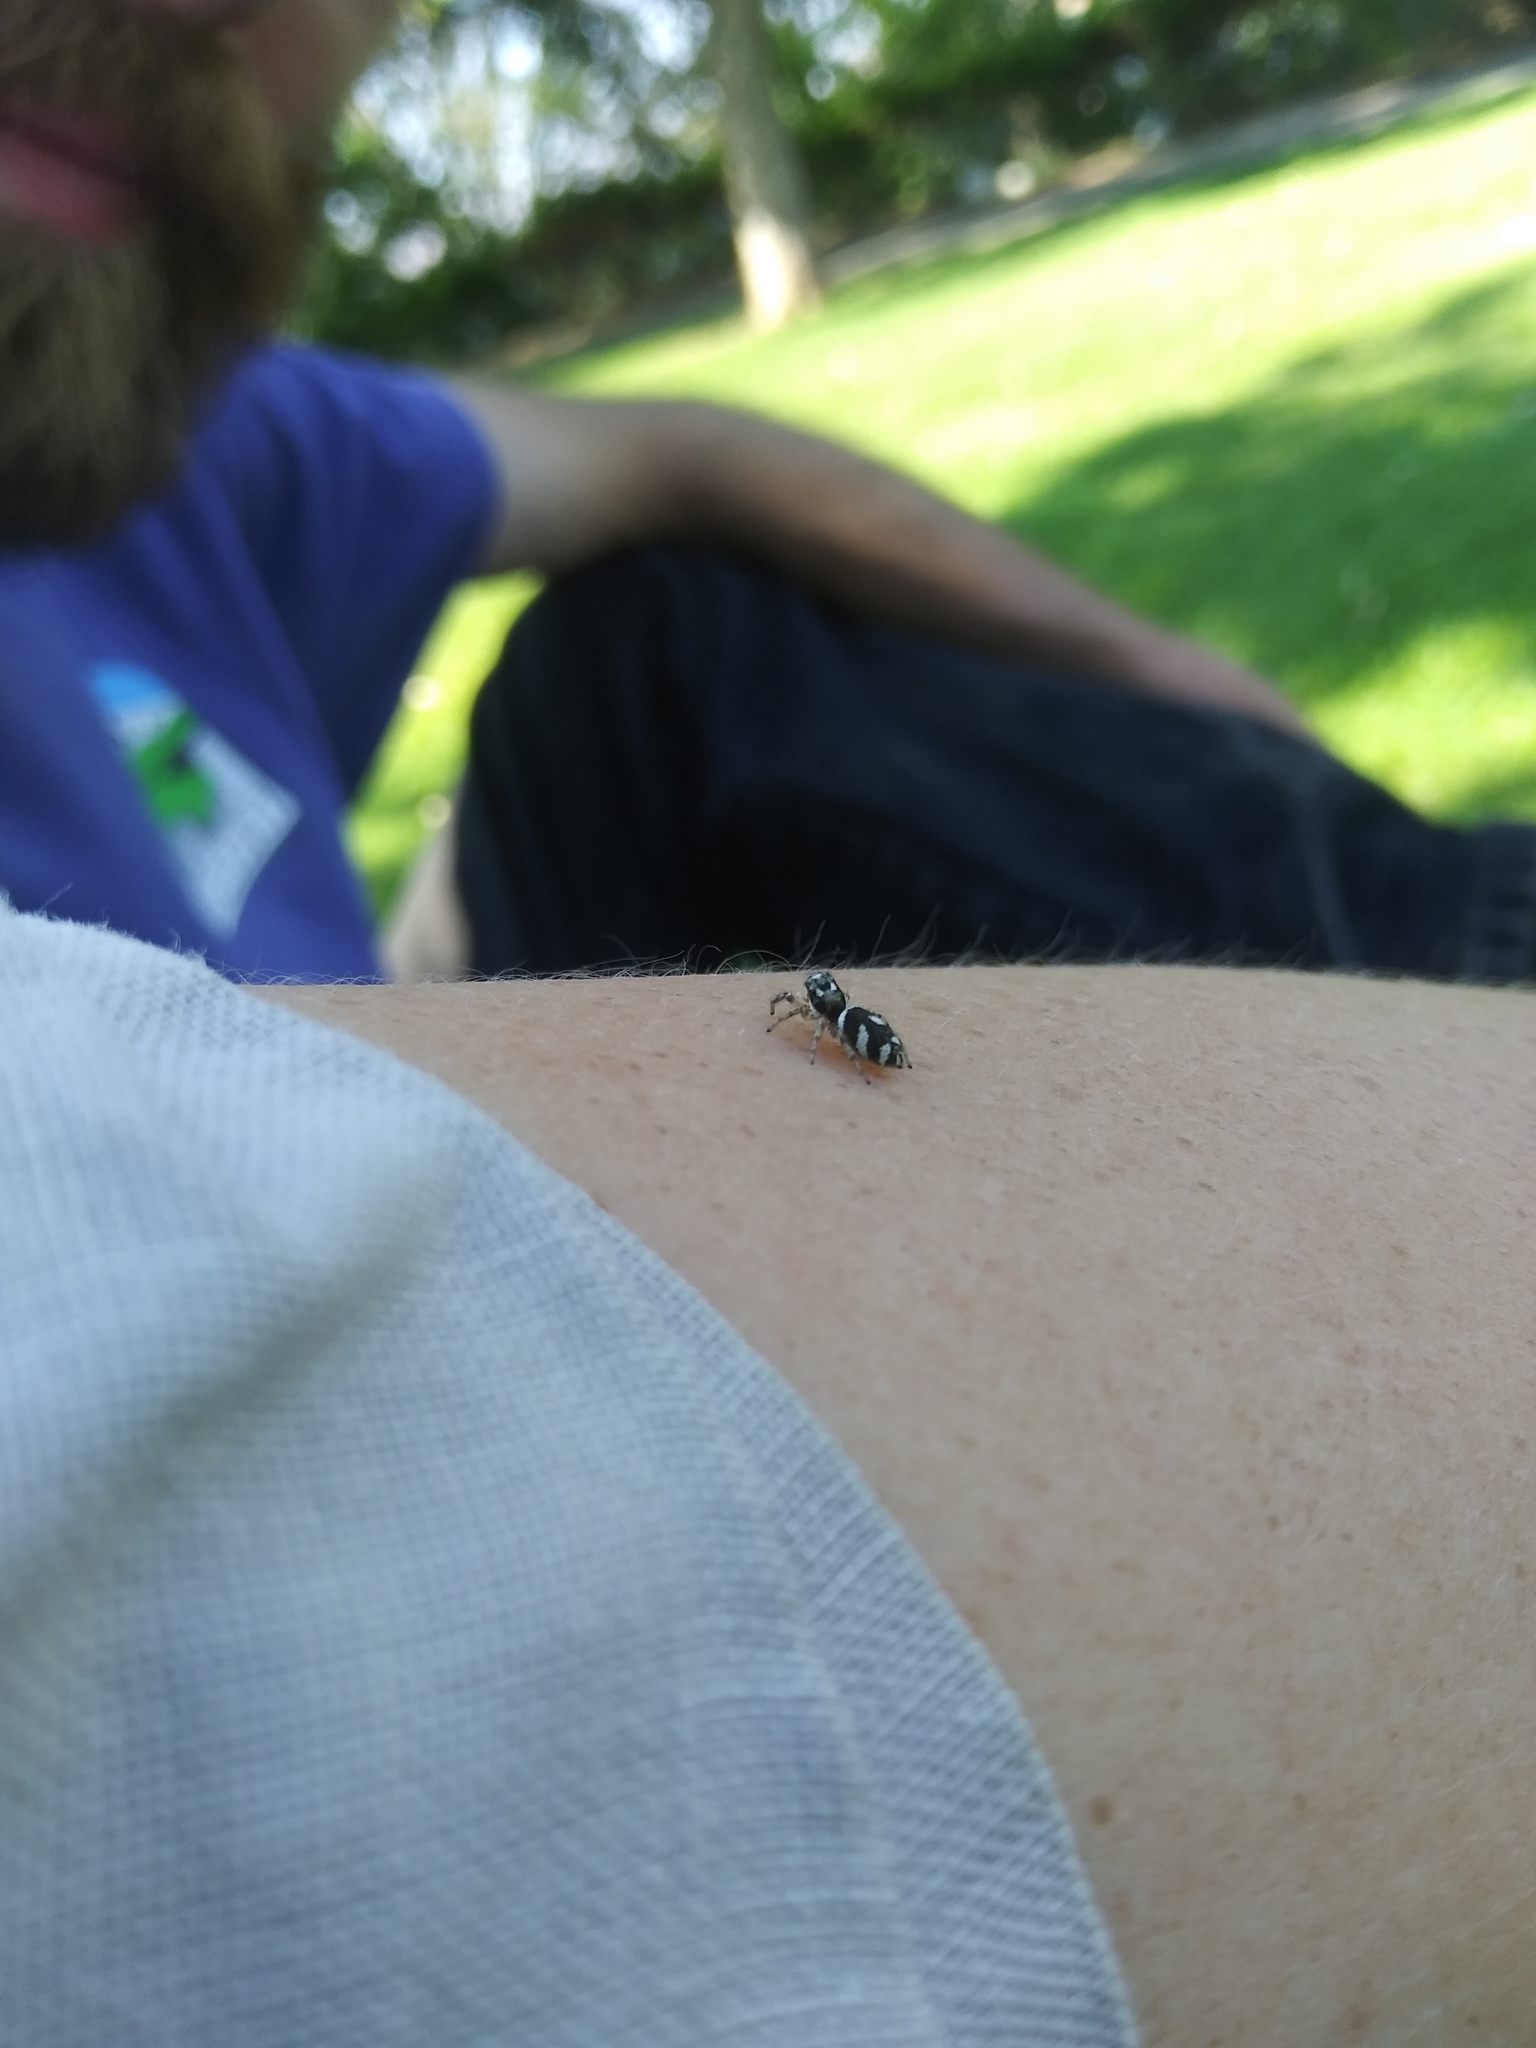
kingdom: Animalia
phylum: Arthropoda
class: Arachnida
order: Araneae
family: Salticidae
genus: Salticus
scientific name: Salticus scenicus
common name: Zebra jumper
